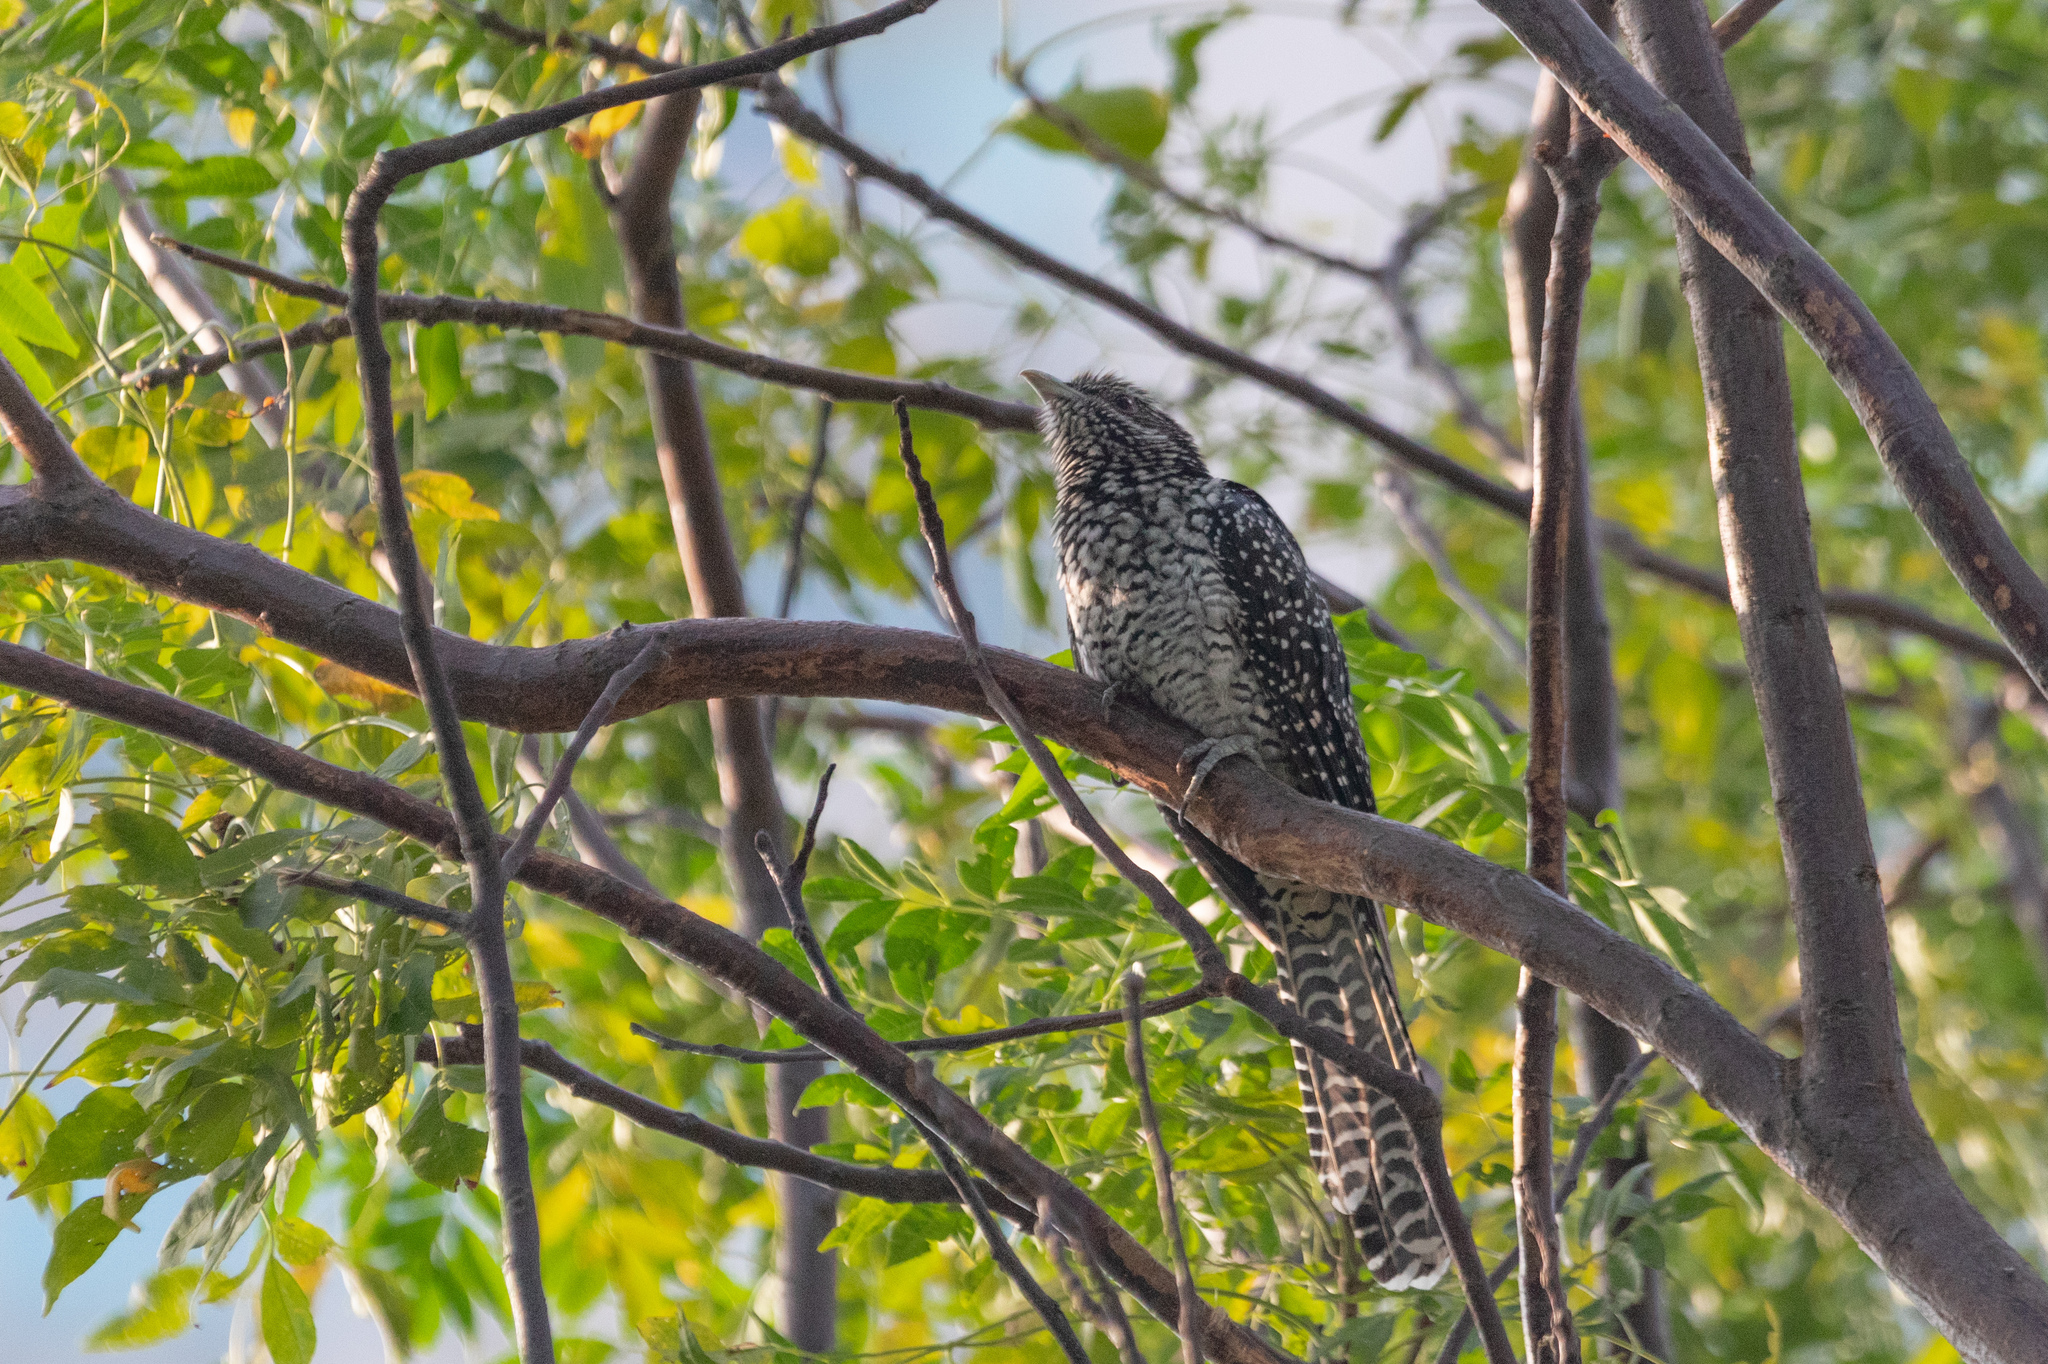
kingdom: Animalia
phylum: Chordata
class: Aves
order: Cuculiformes
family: Cuculidae
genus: Eudynamys
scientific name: Eudynamys scolopaceus
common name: Asian koel
